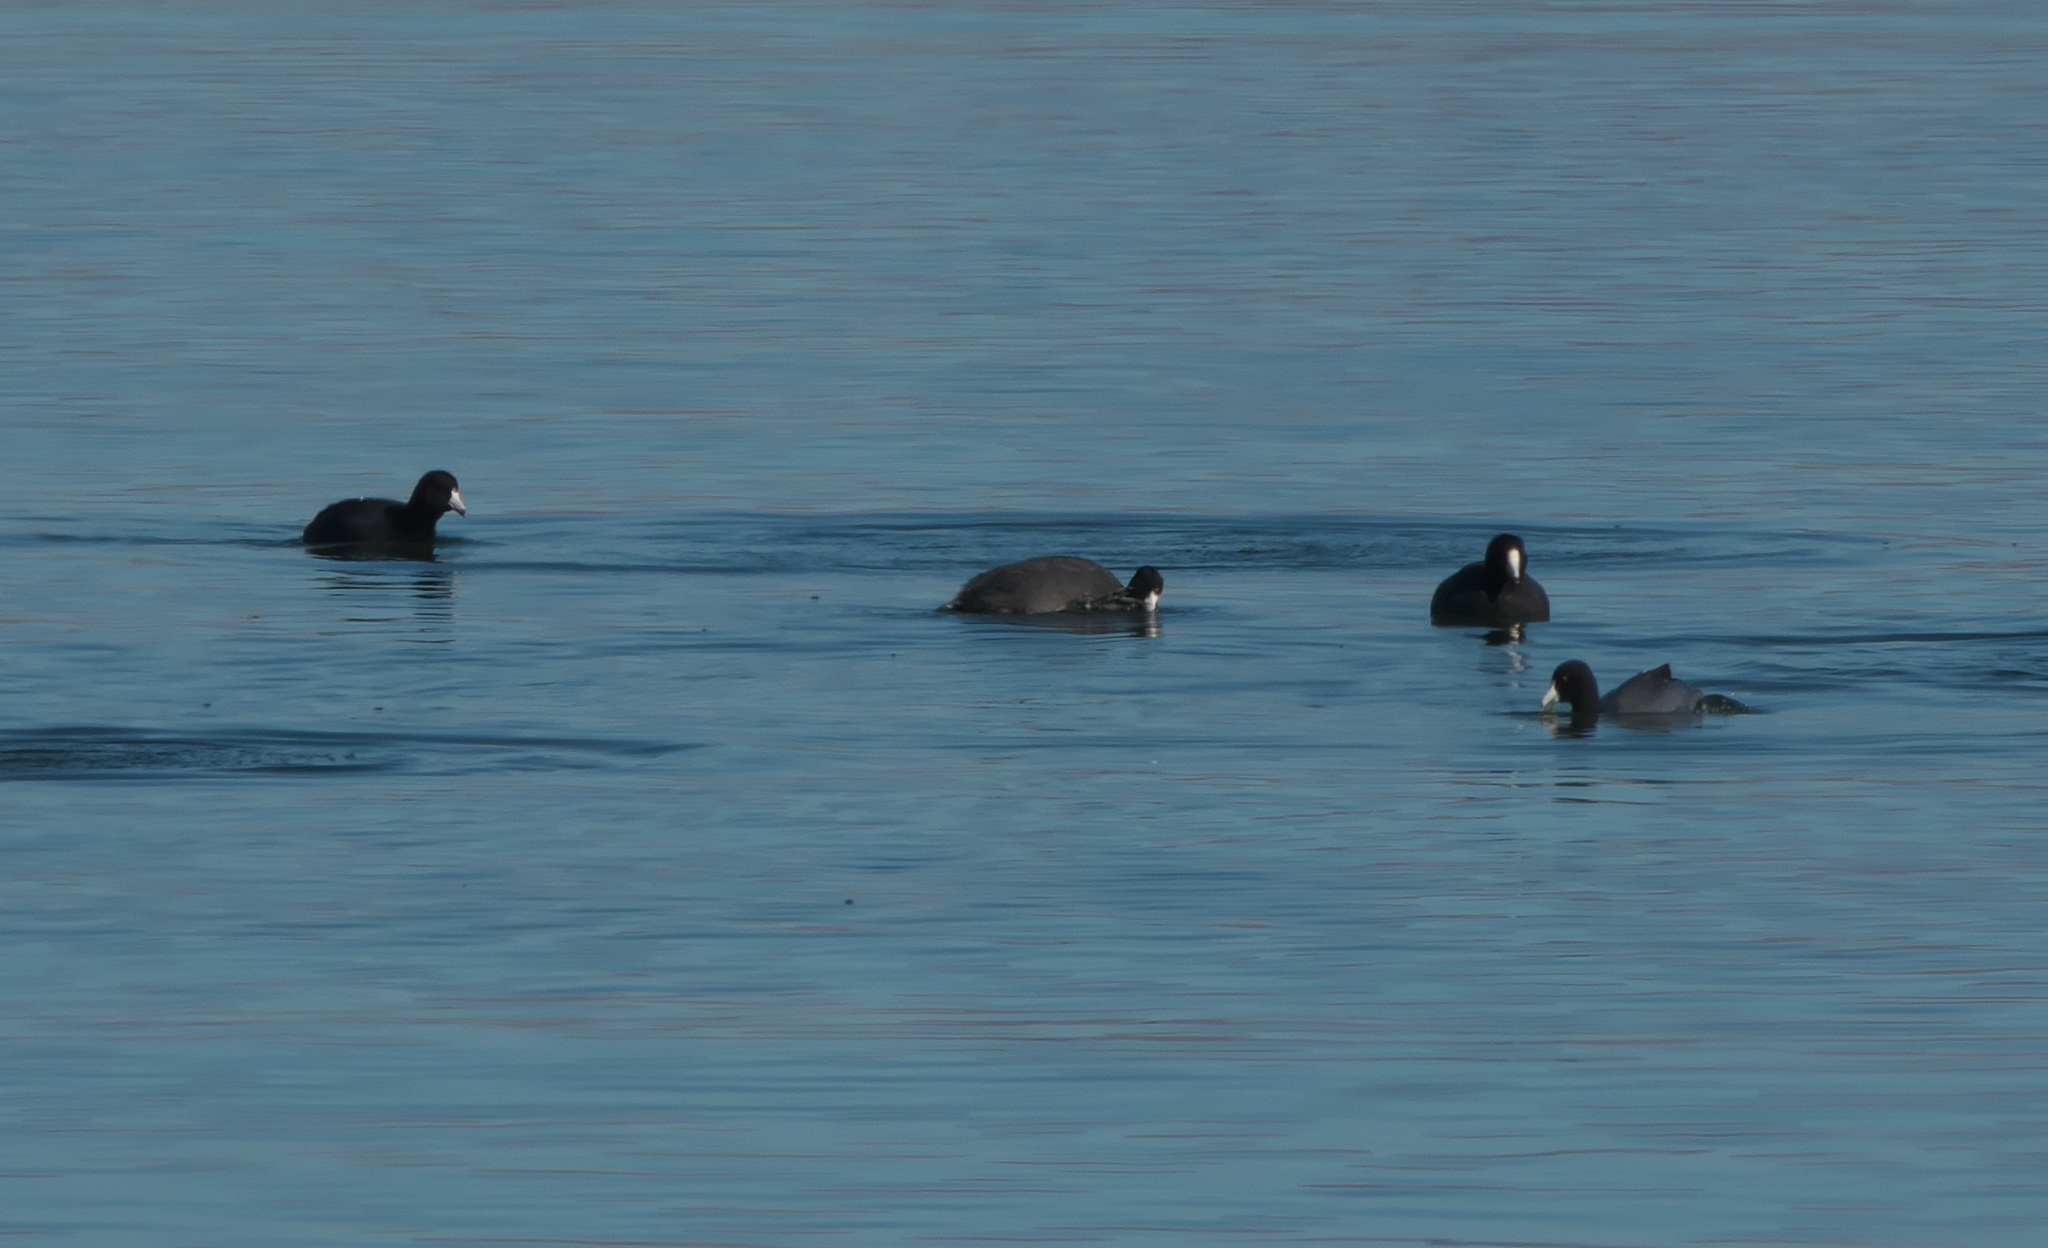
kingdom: Animalia
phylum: Chordata
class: Aves
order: Gruiformes
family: Rallidae
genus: Fulica
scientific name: Fulica americana
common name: American coot
